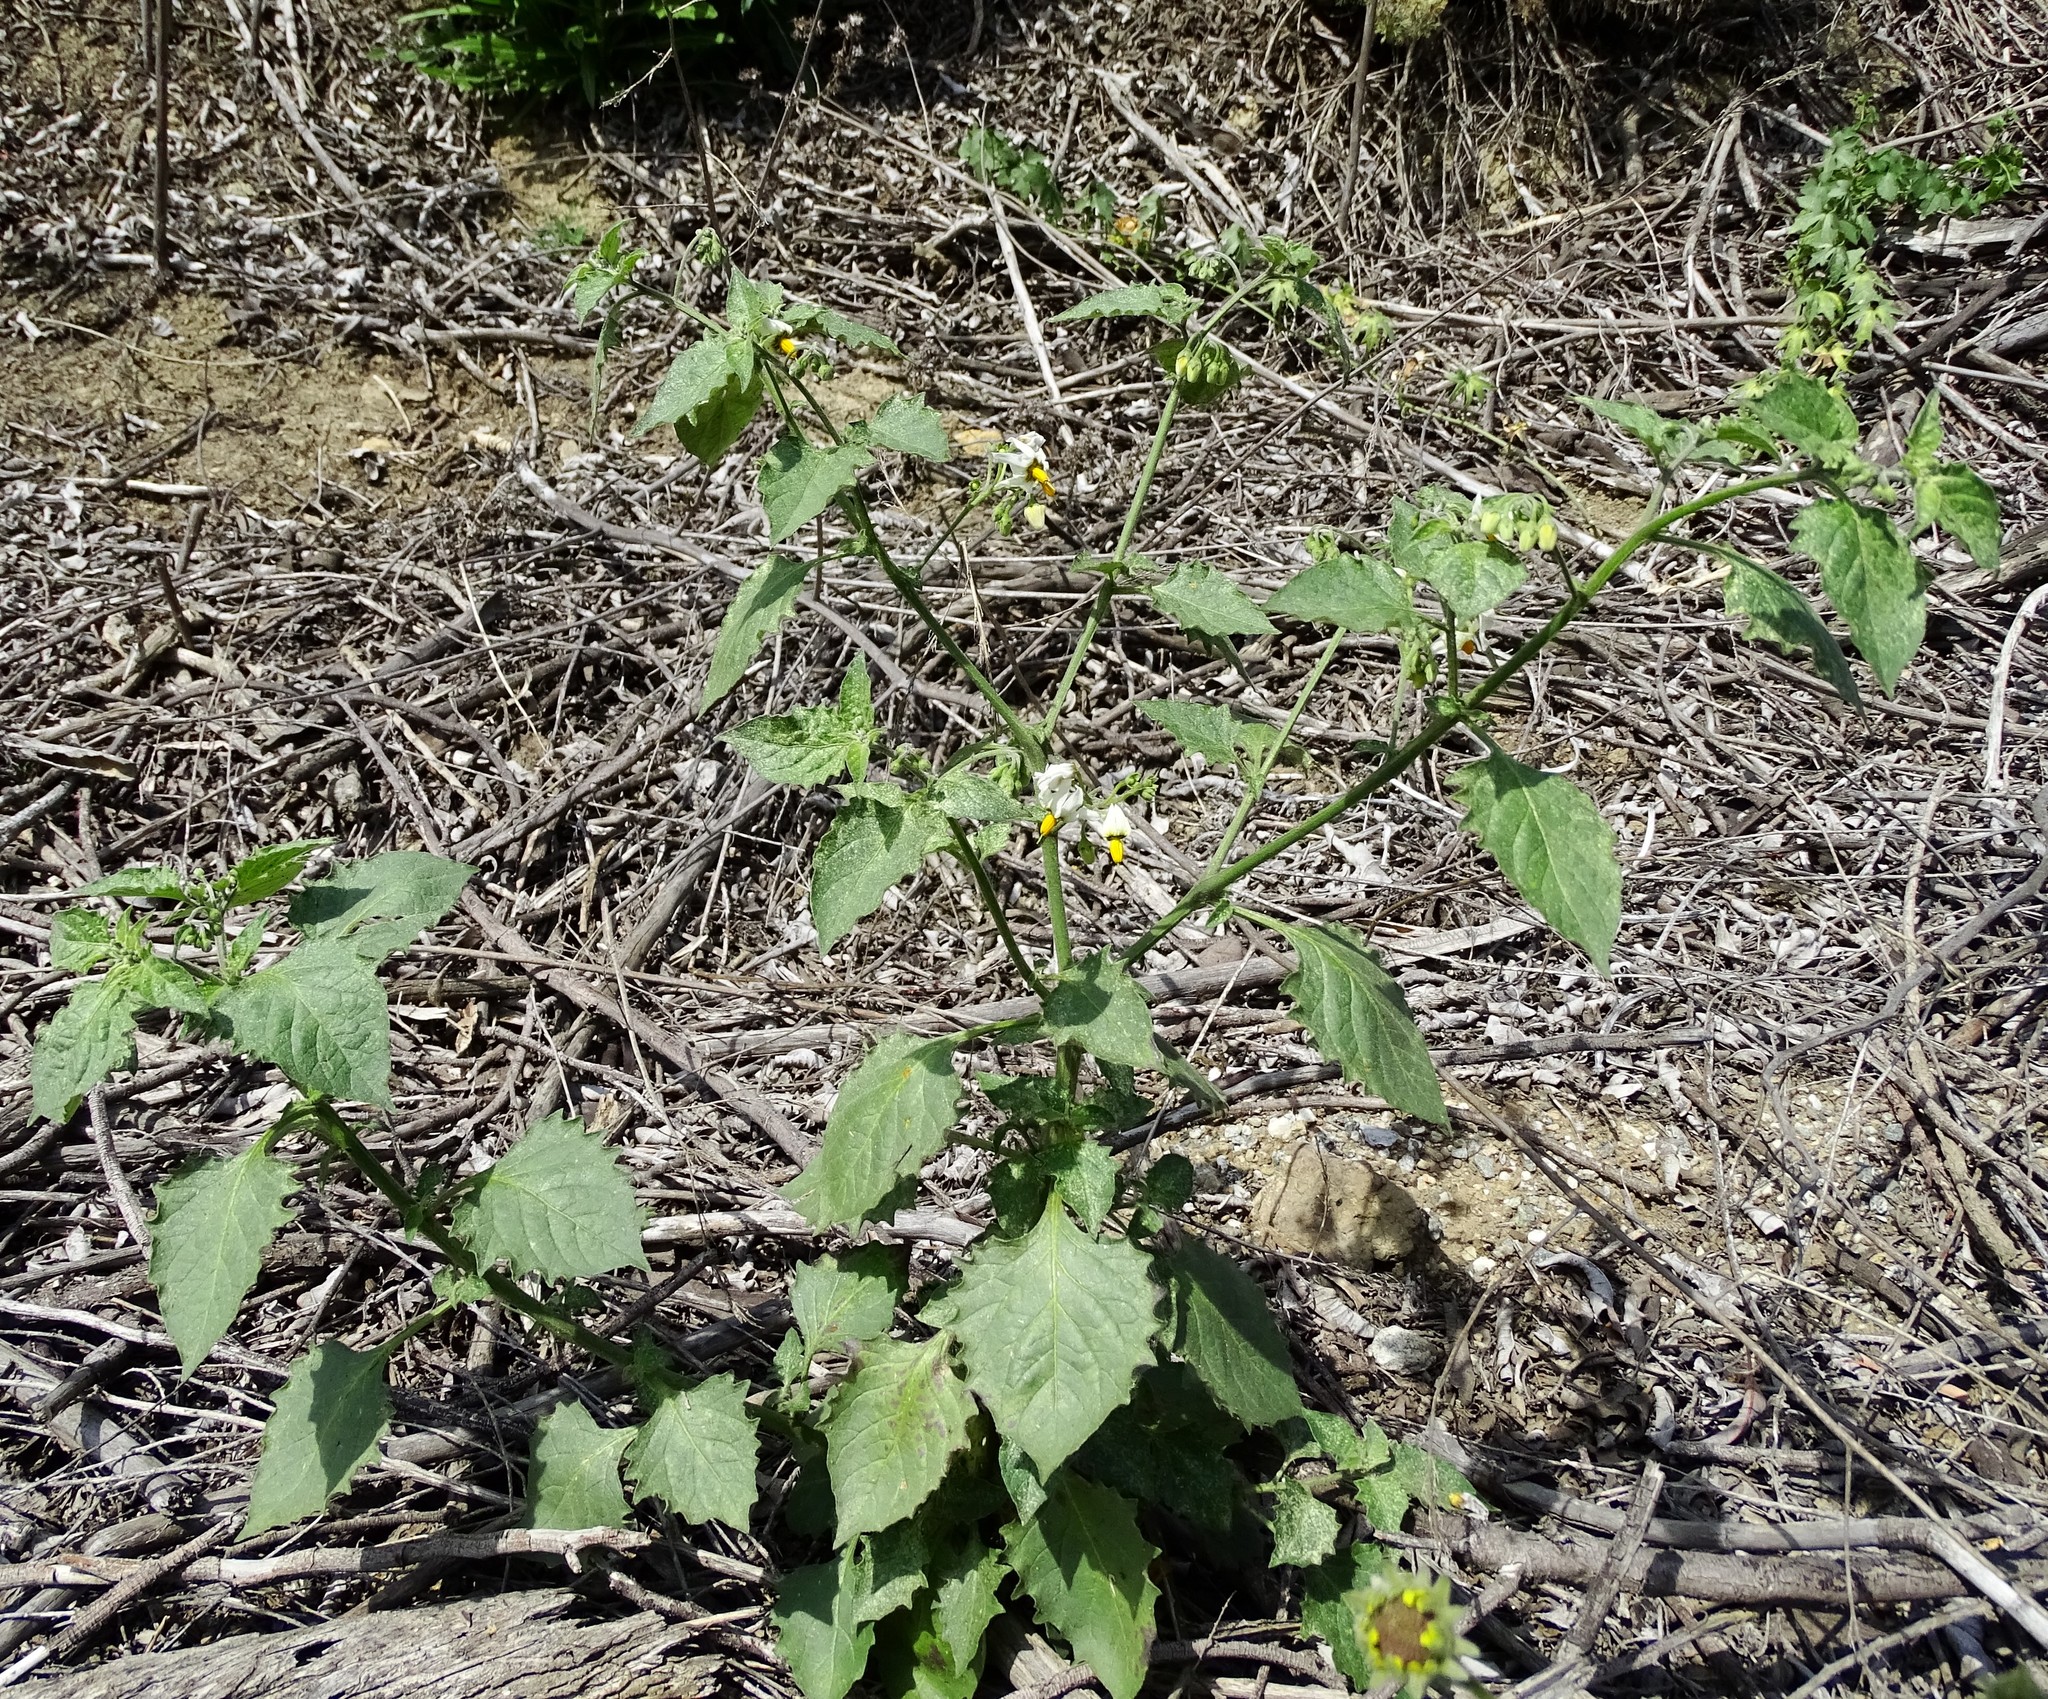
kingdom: Plantae
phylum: Tracheophyta
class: Magnoliopsida
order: Solanales
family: Solanaceae
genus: Solanum
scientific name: Solanum douglasii
